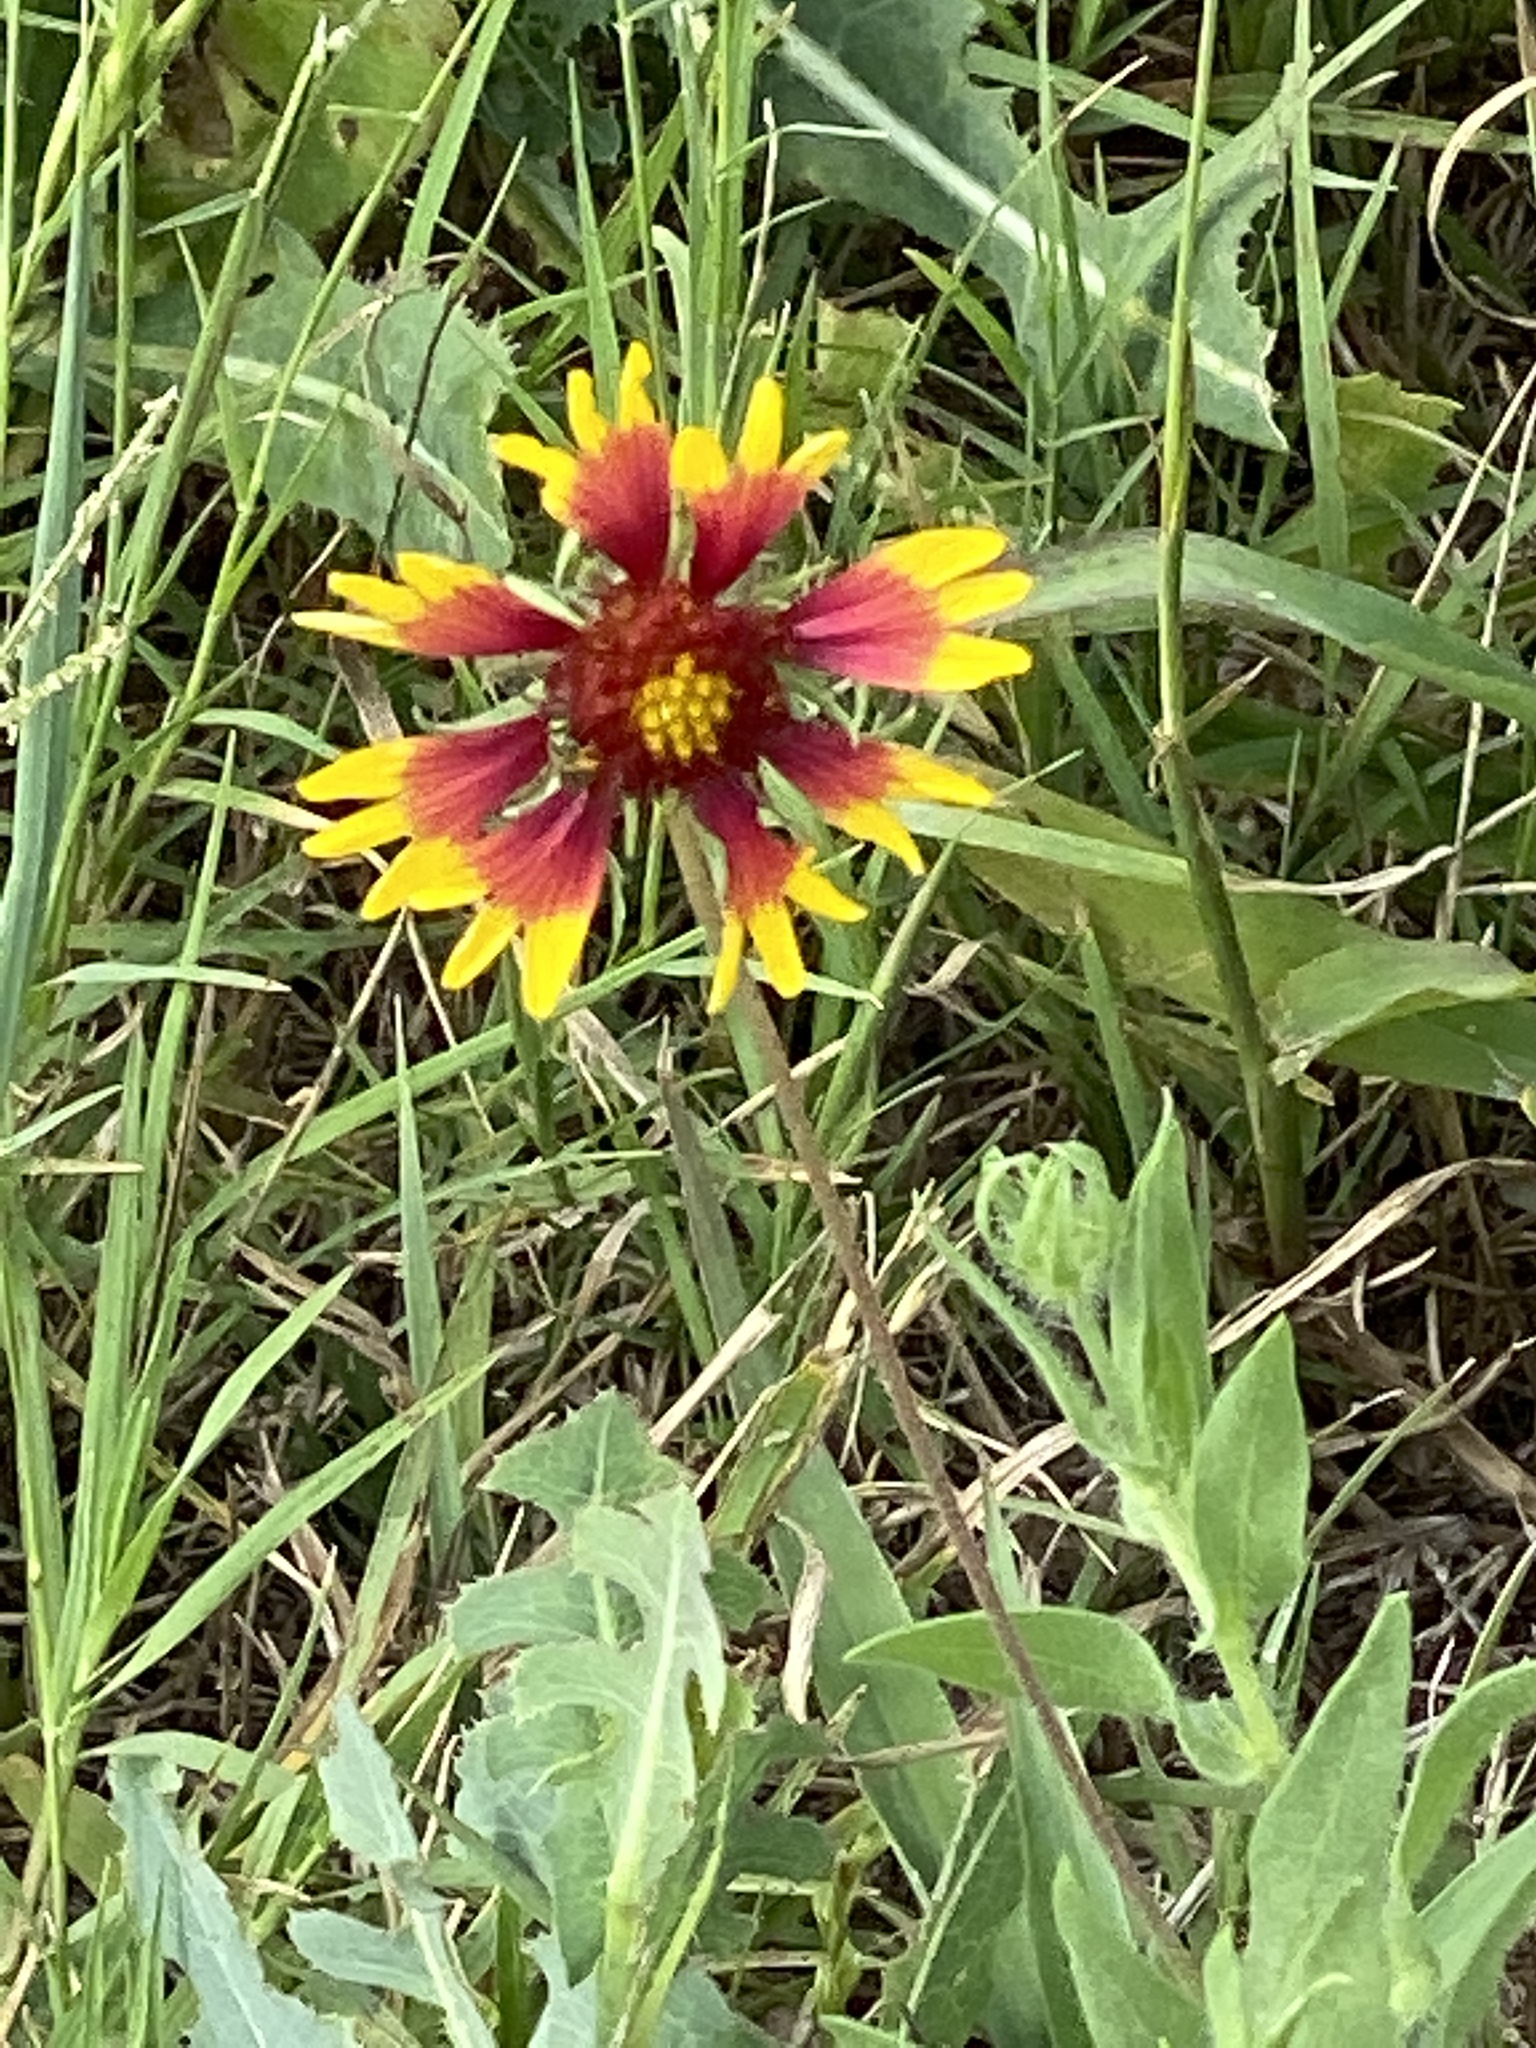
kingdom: Plantae
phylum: Tracheophyta
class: Magnoliopsida
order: Asterales
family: Asteraceae
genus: Gaillardia
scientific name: Gaillardia pulchella
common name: Firewheel
